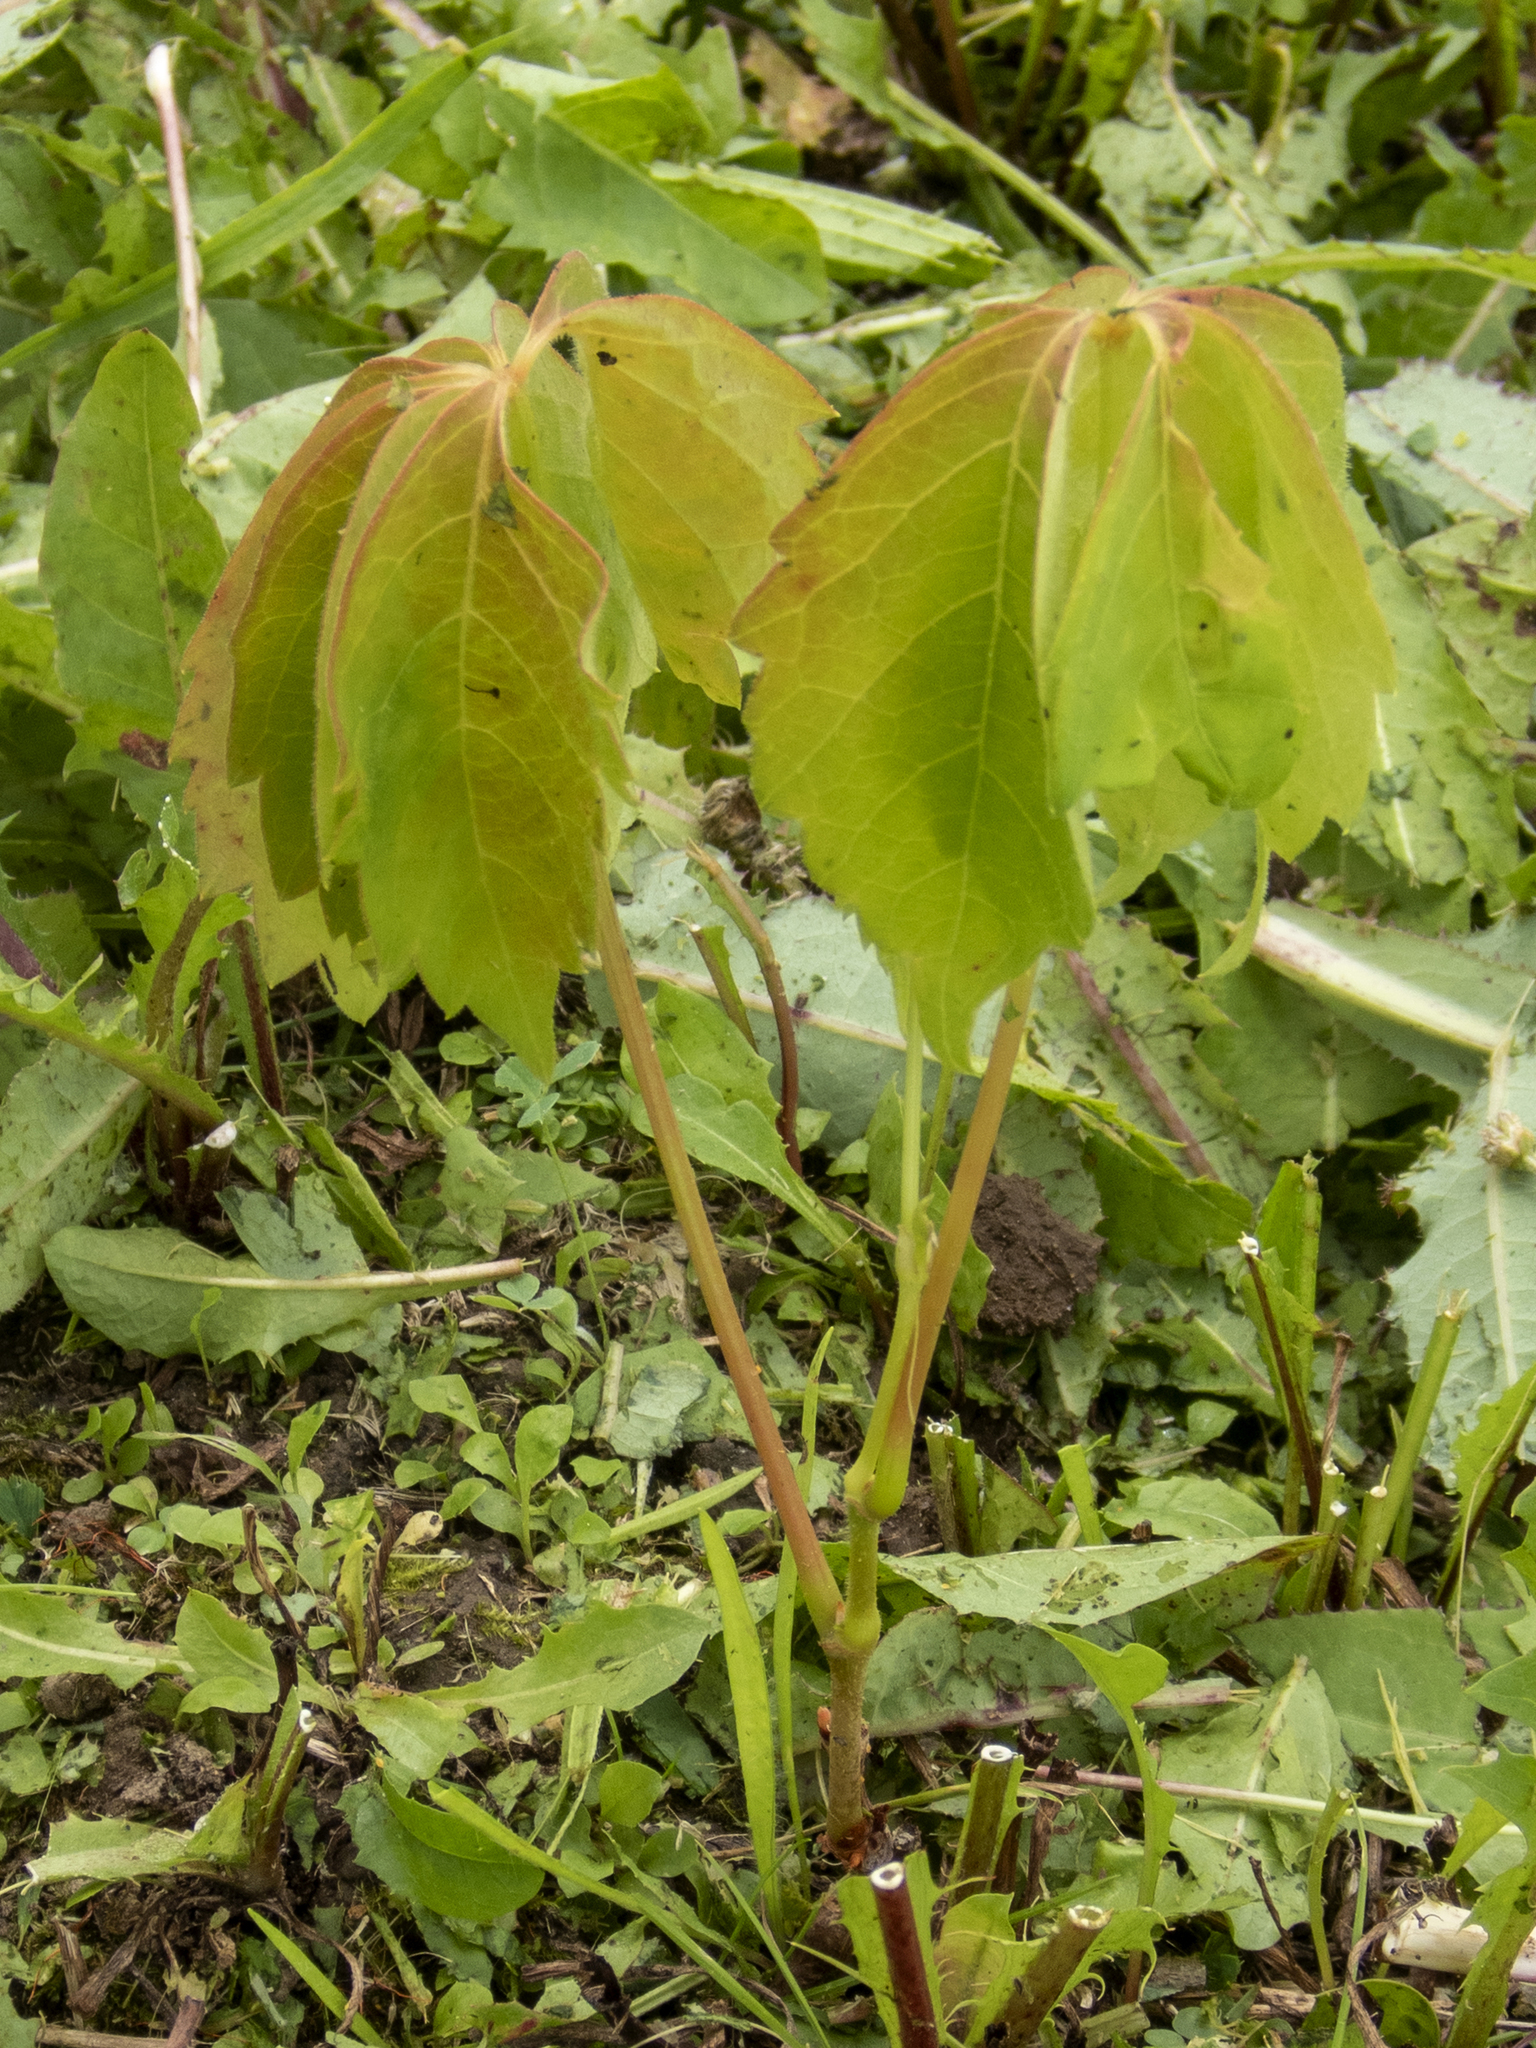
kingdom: Plantae
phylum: Tracheophyta
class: Magnoliopsida
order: Vitales
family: Vitaceae
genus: Parthenocissus
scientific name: Parthenocissus quinquefolia
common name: Virginia-creeper
